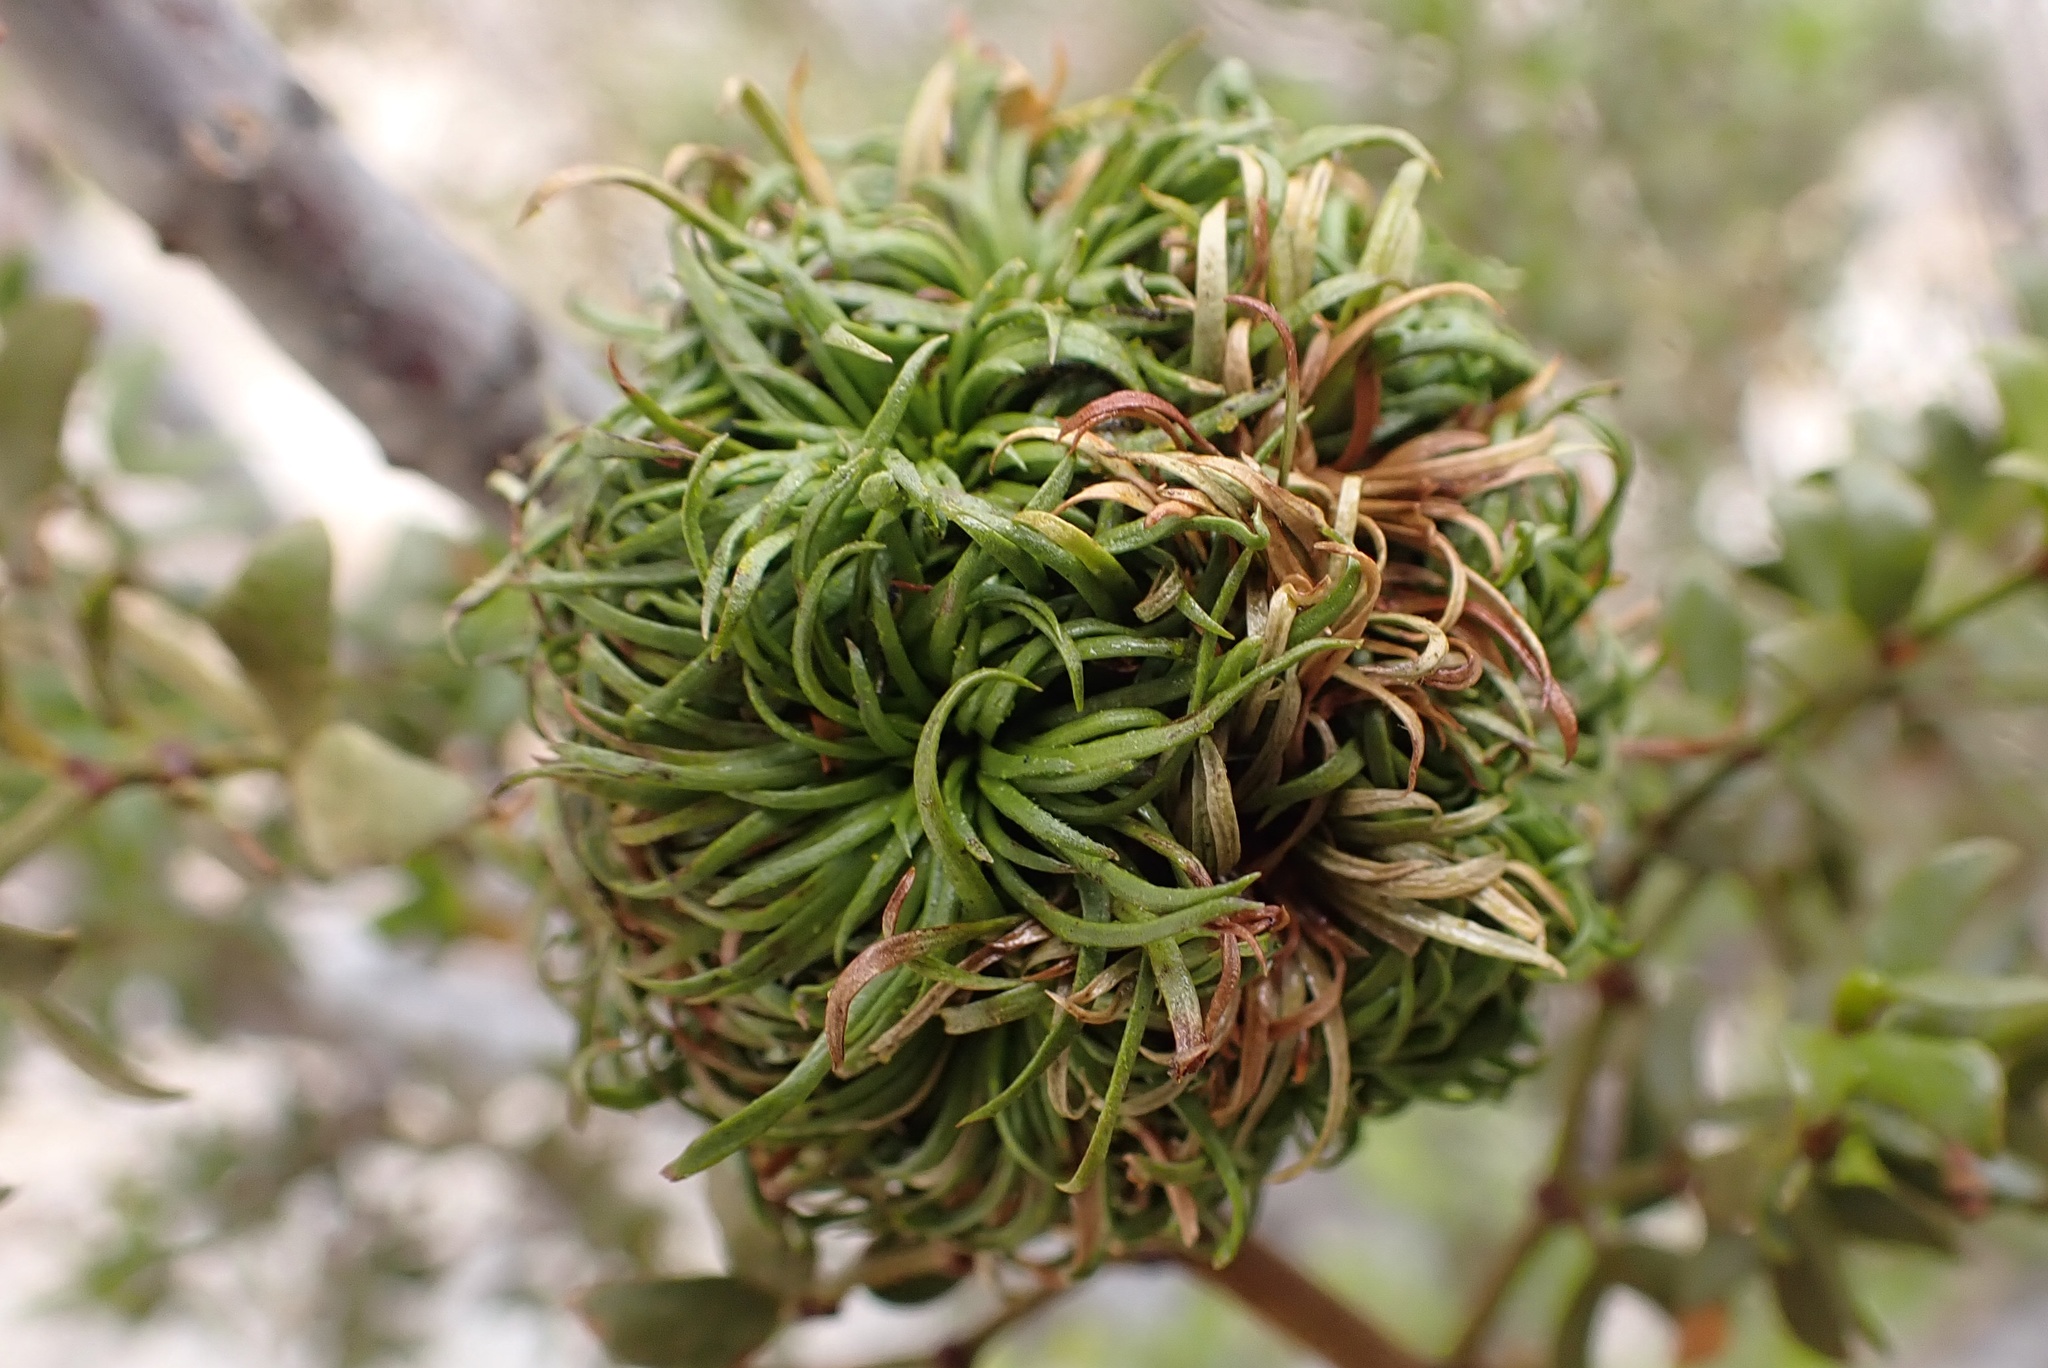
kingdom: Animalia
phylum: Arthropoda
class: Insecta
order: Diptera
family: Cecidomyiidae
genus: Asphondylia
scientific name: Asphondylia auripila
